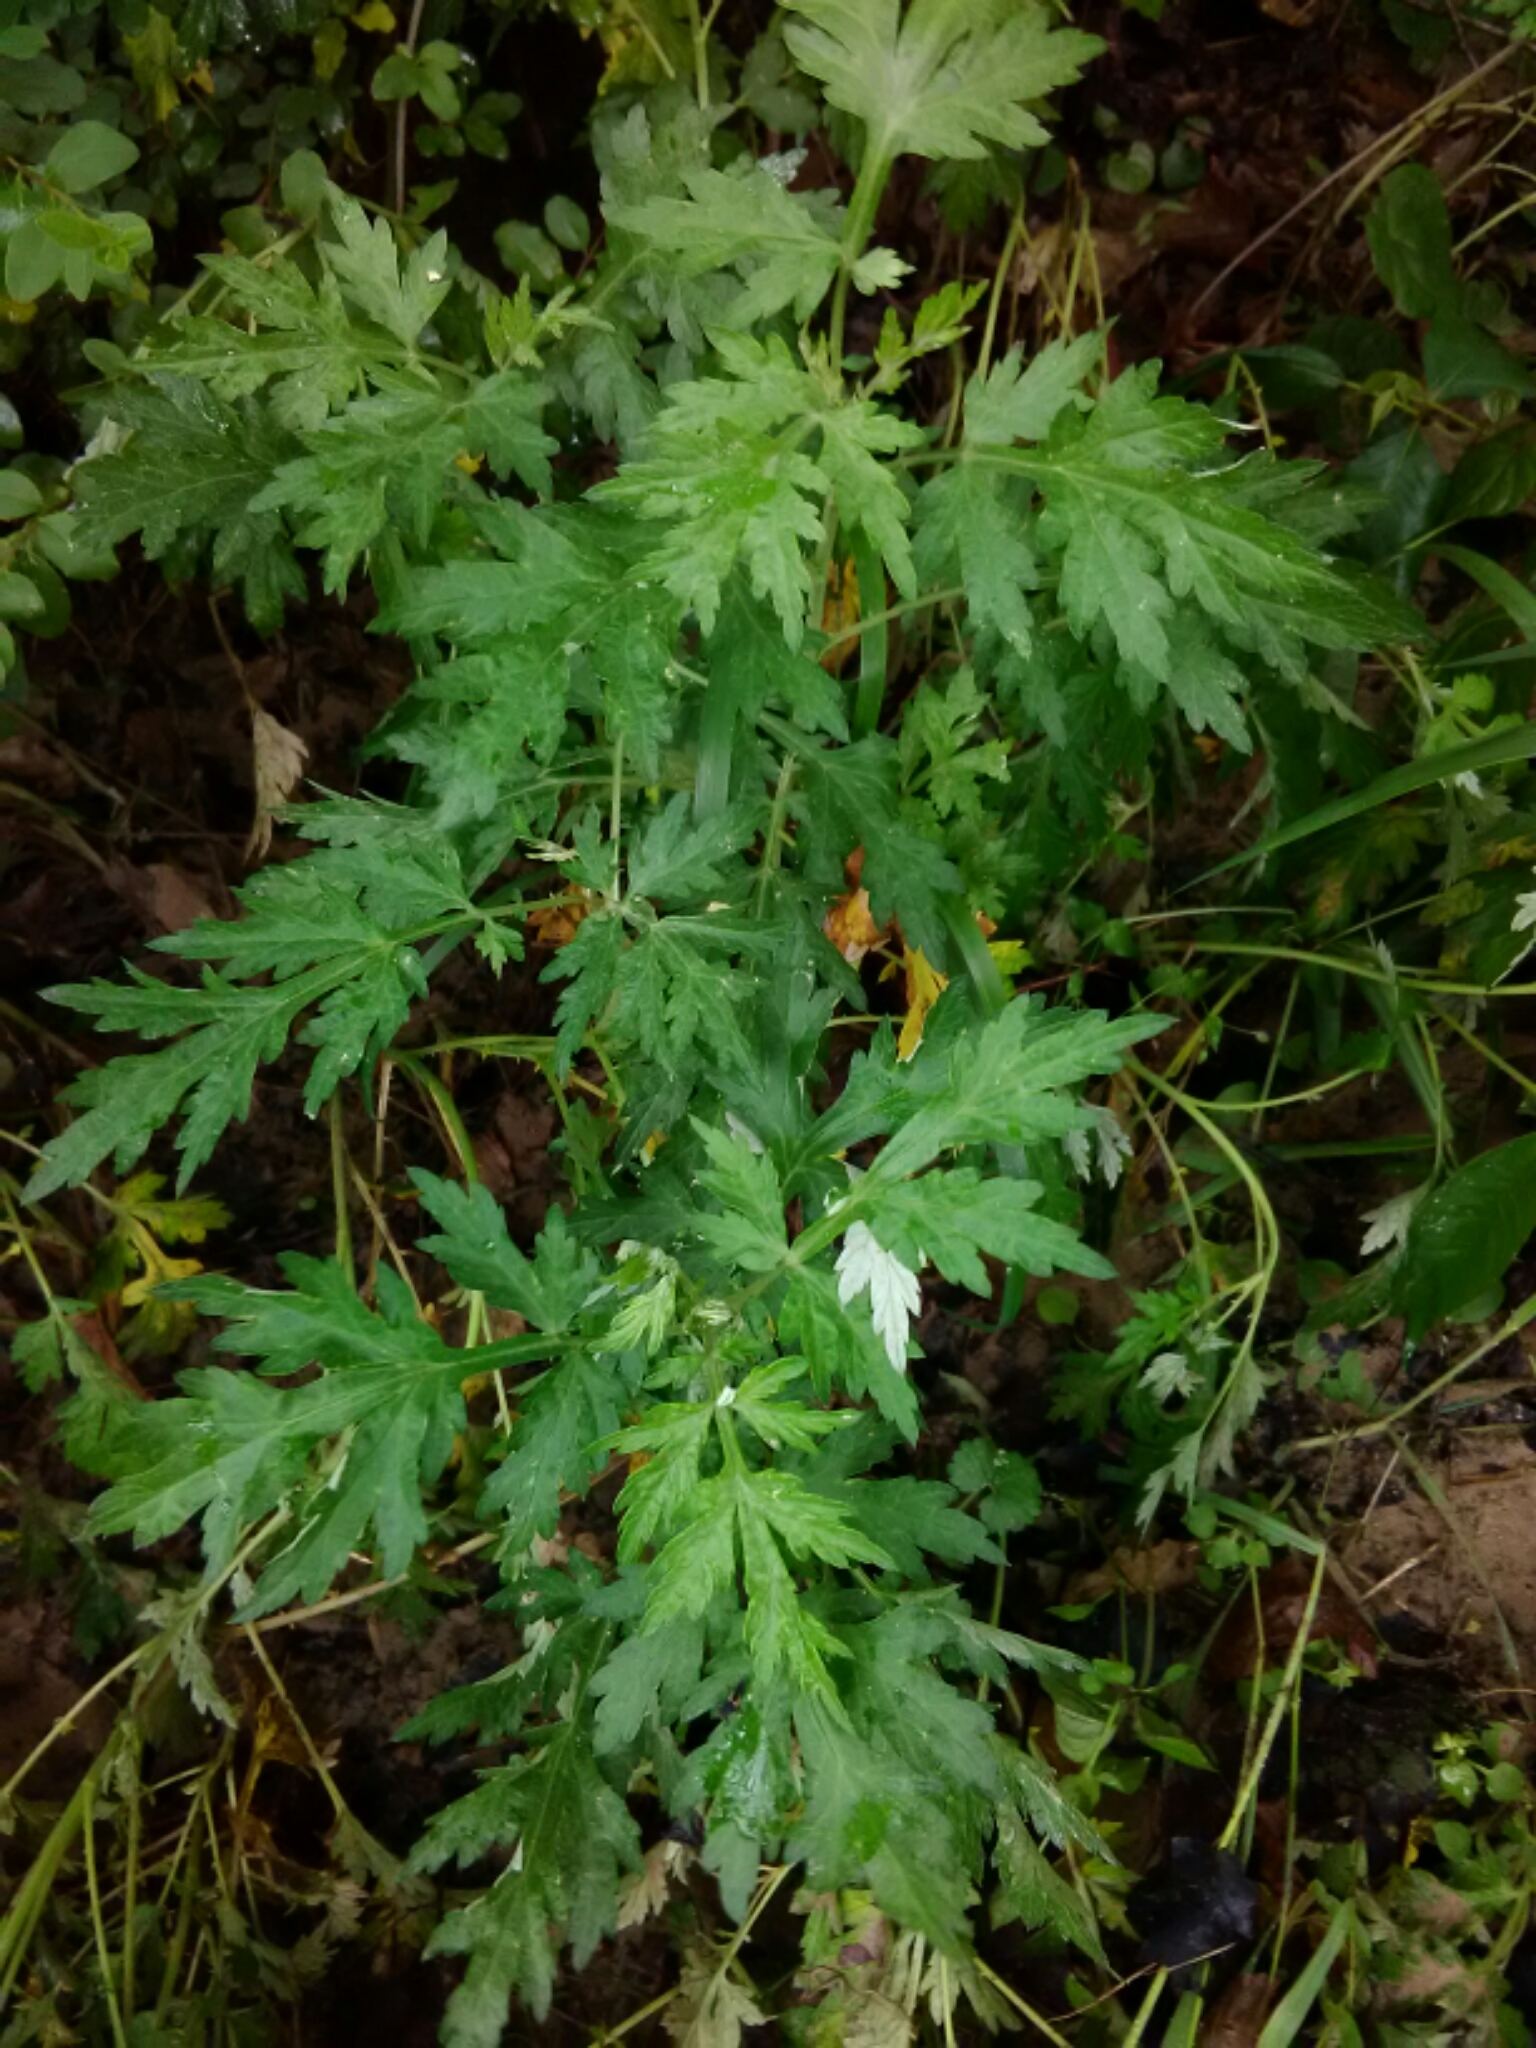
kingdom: Plantae
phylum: Tracheophyta
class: Magnoliopsida
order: Asterales
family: Asteraceae
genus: Artemisia
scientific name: Artemisia vulgaris
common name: Mugwort
